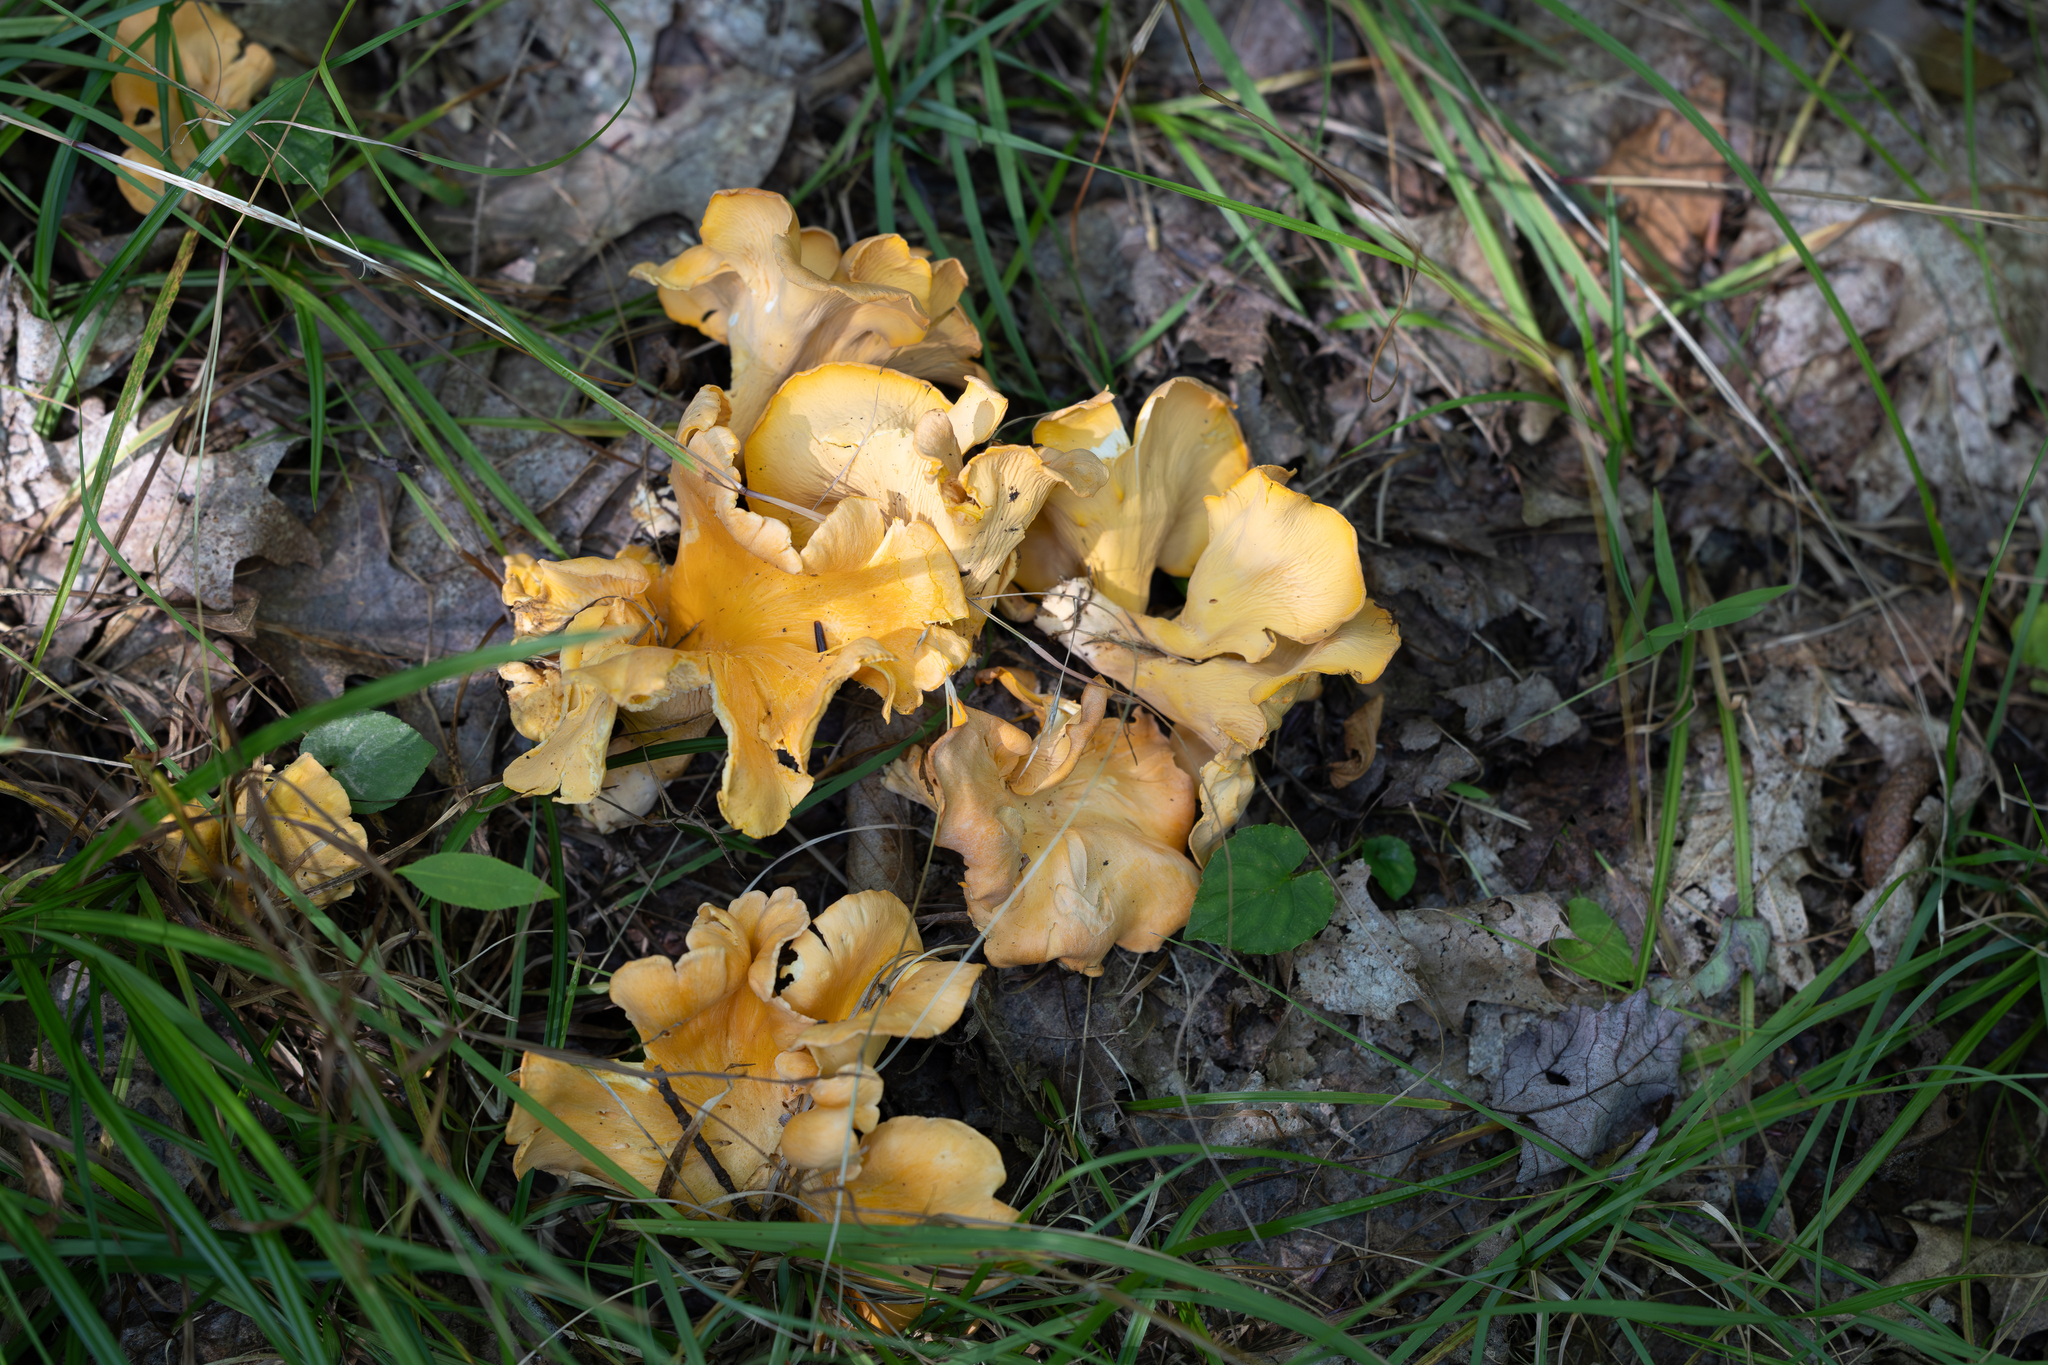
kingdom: Fungi
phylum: Basidiomycota
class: Agaricomycetes
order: Cantharellales
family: Hydnaceae
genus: Cantharellus
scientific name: Cantharellus flavolateritius
